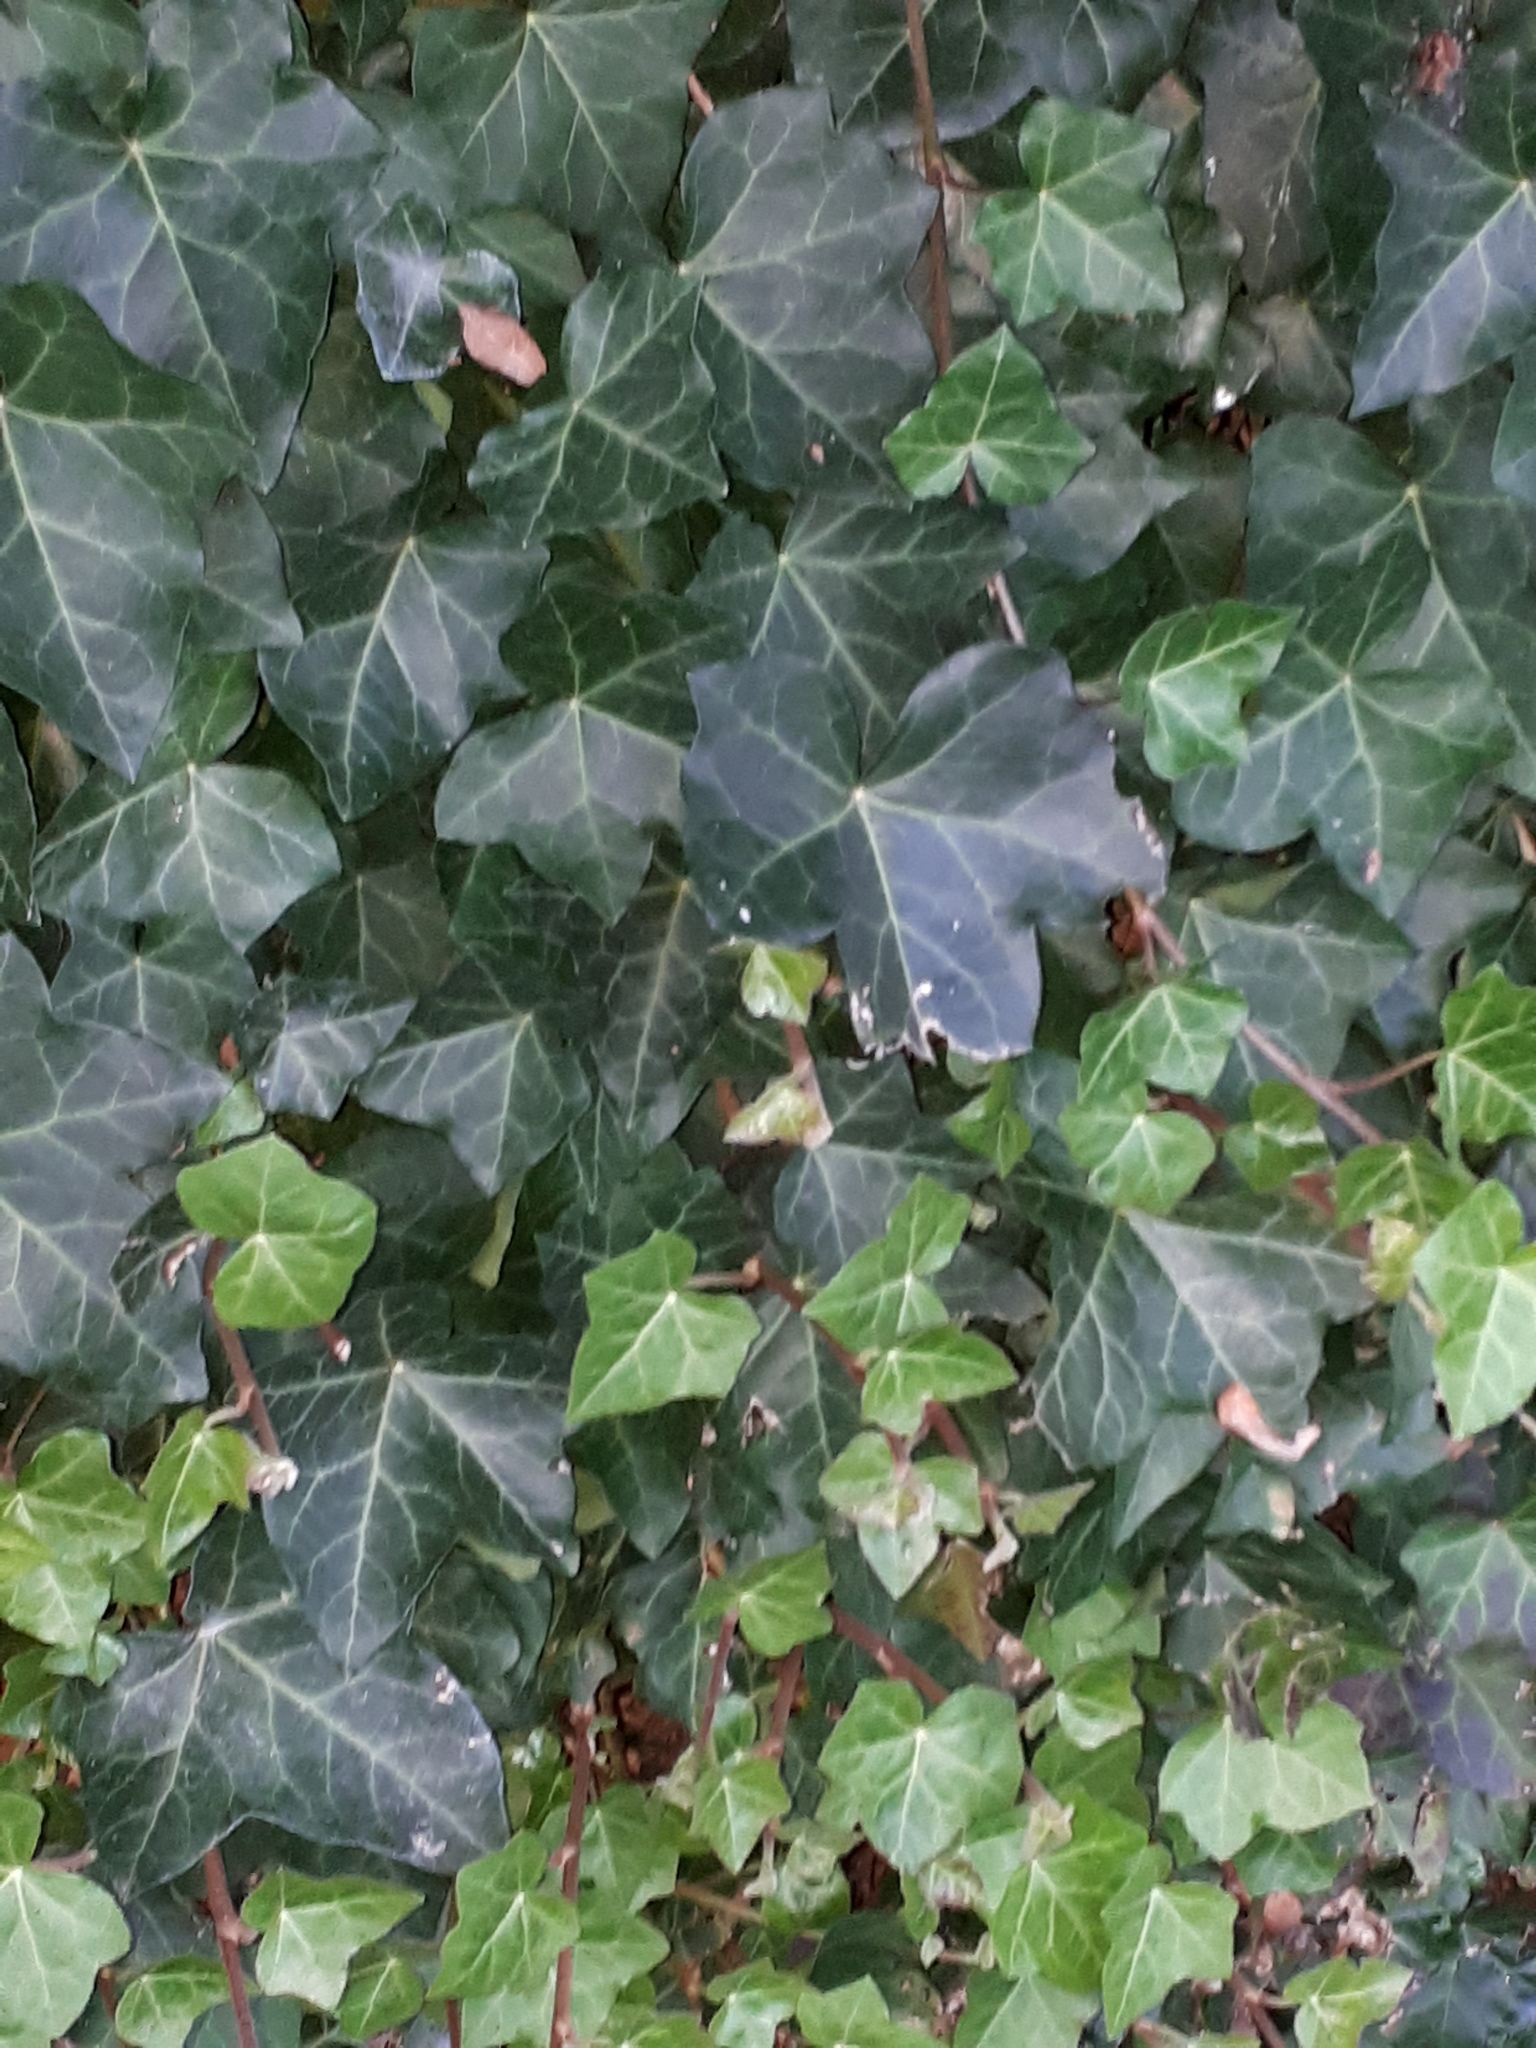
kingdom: Plantae
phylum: Tracheophyta
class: Magnoliopsida
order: Apiales
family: Araliaceae
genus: Hedera
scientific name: Hedera helix
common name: Ivy
